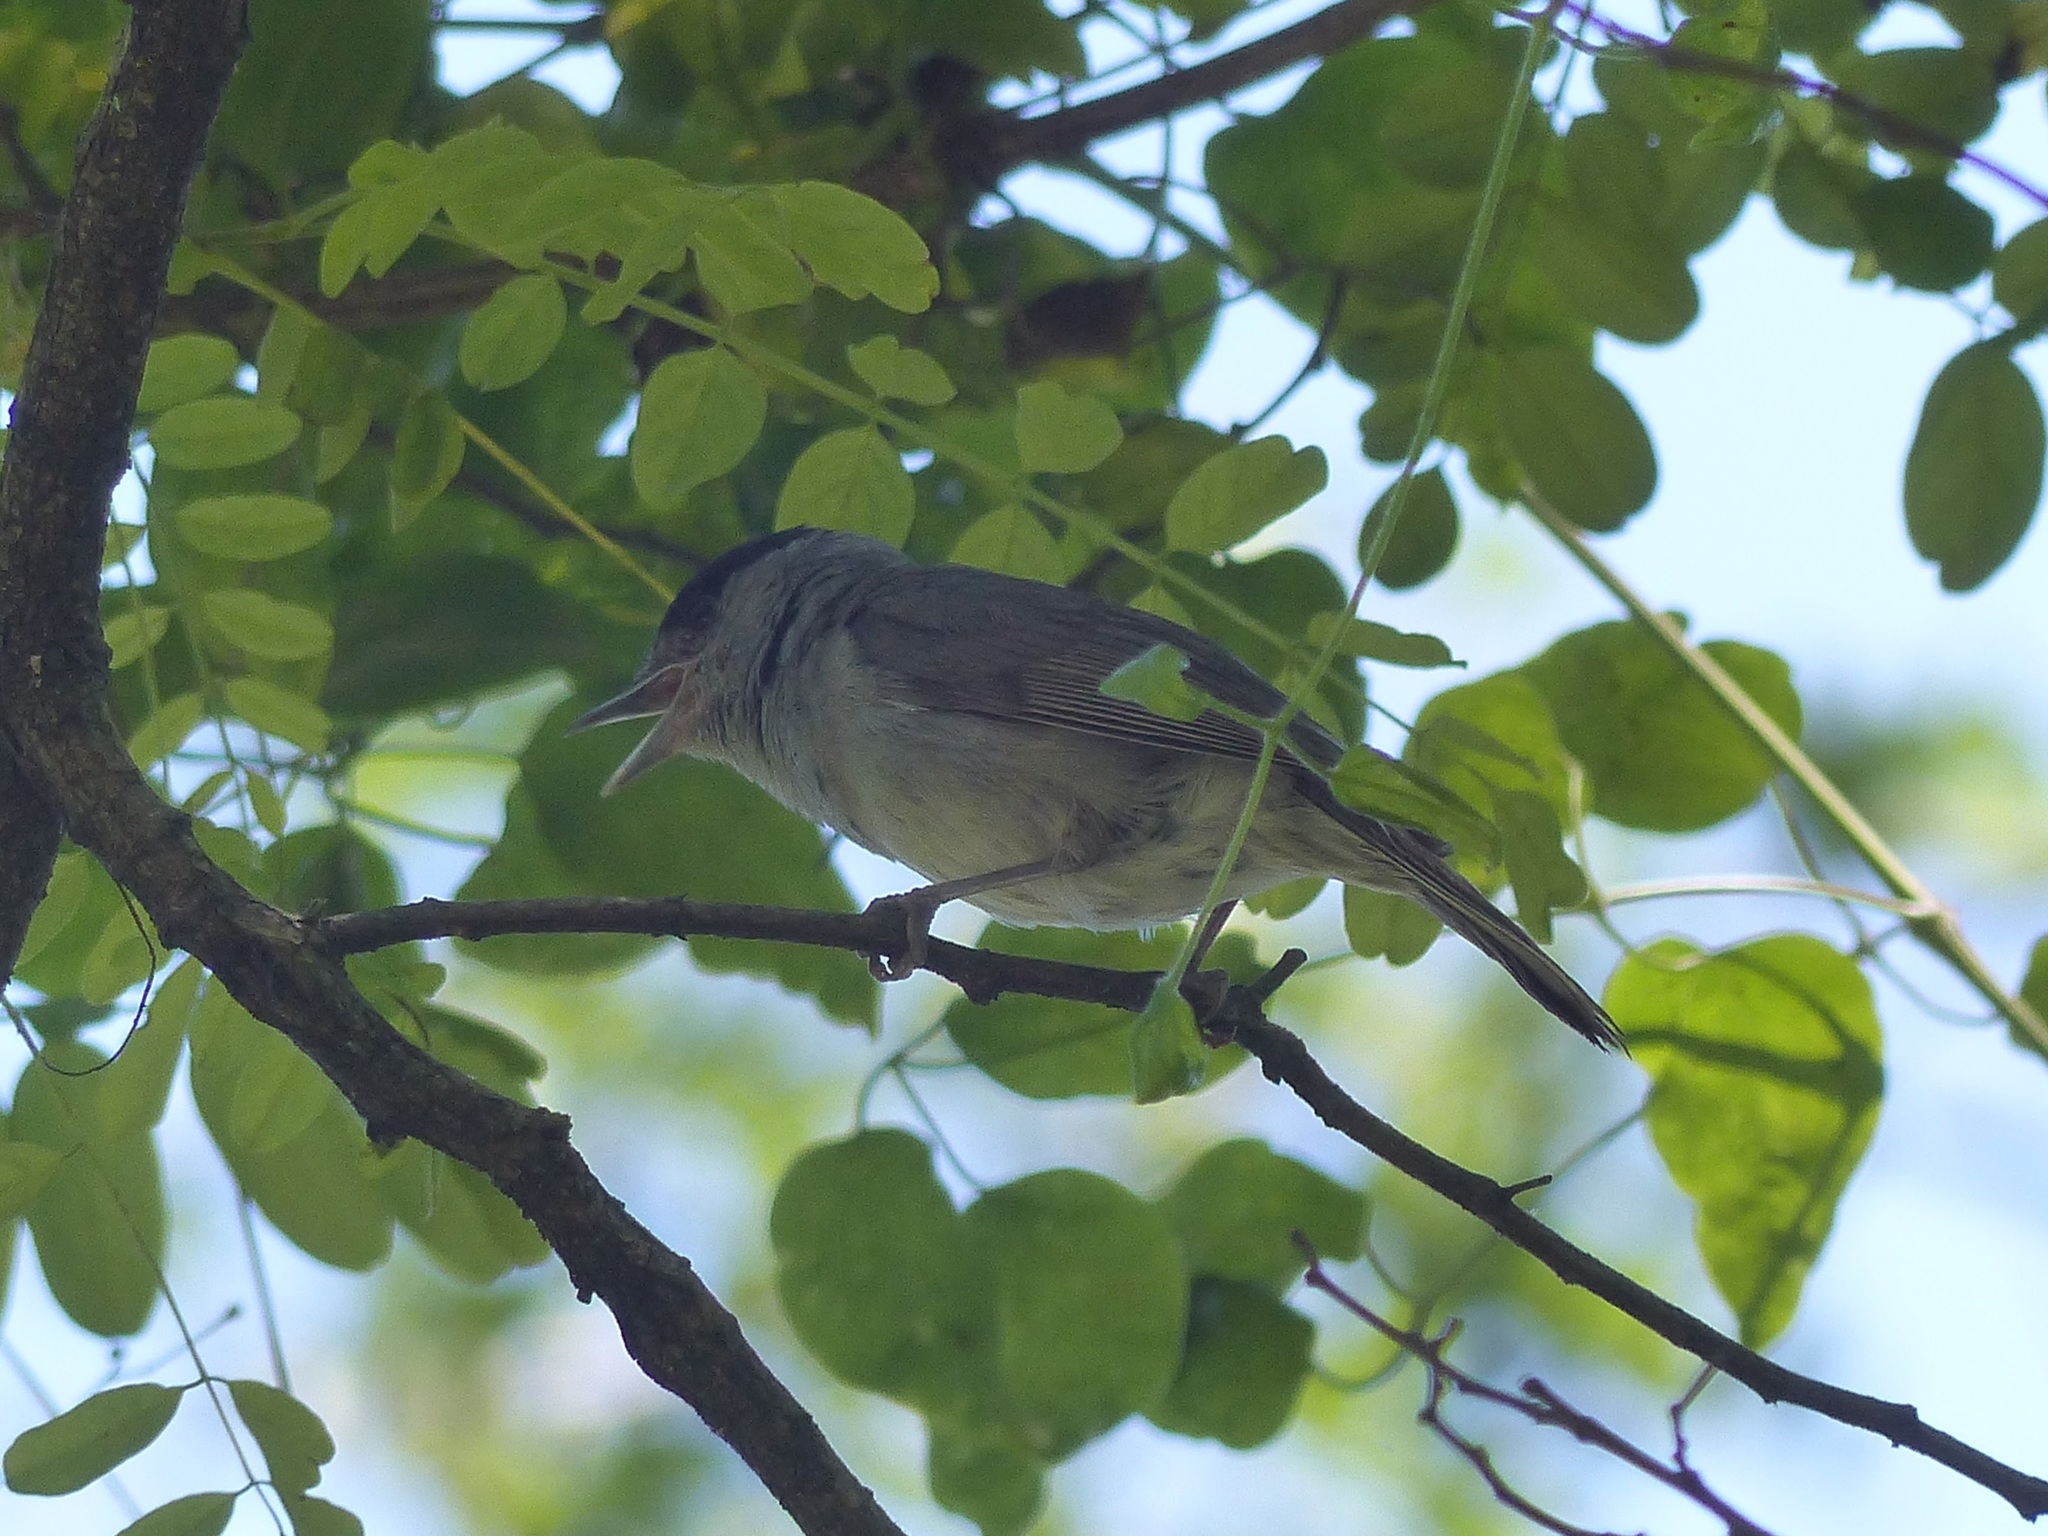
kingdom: Animalia
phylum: Chordata
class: Aves
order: Passeriformes
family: Sylviidae
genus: Sylvia
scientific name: Sylvia atricapilla
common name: Eurasian blackcap
